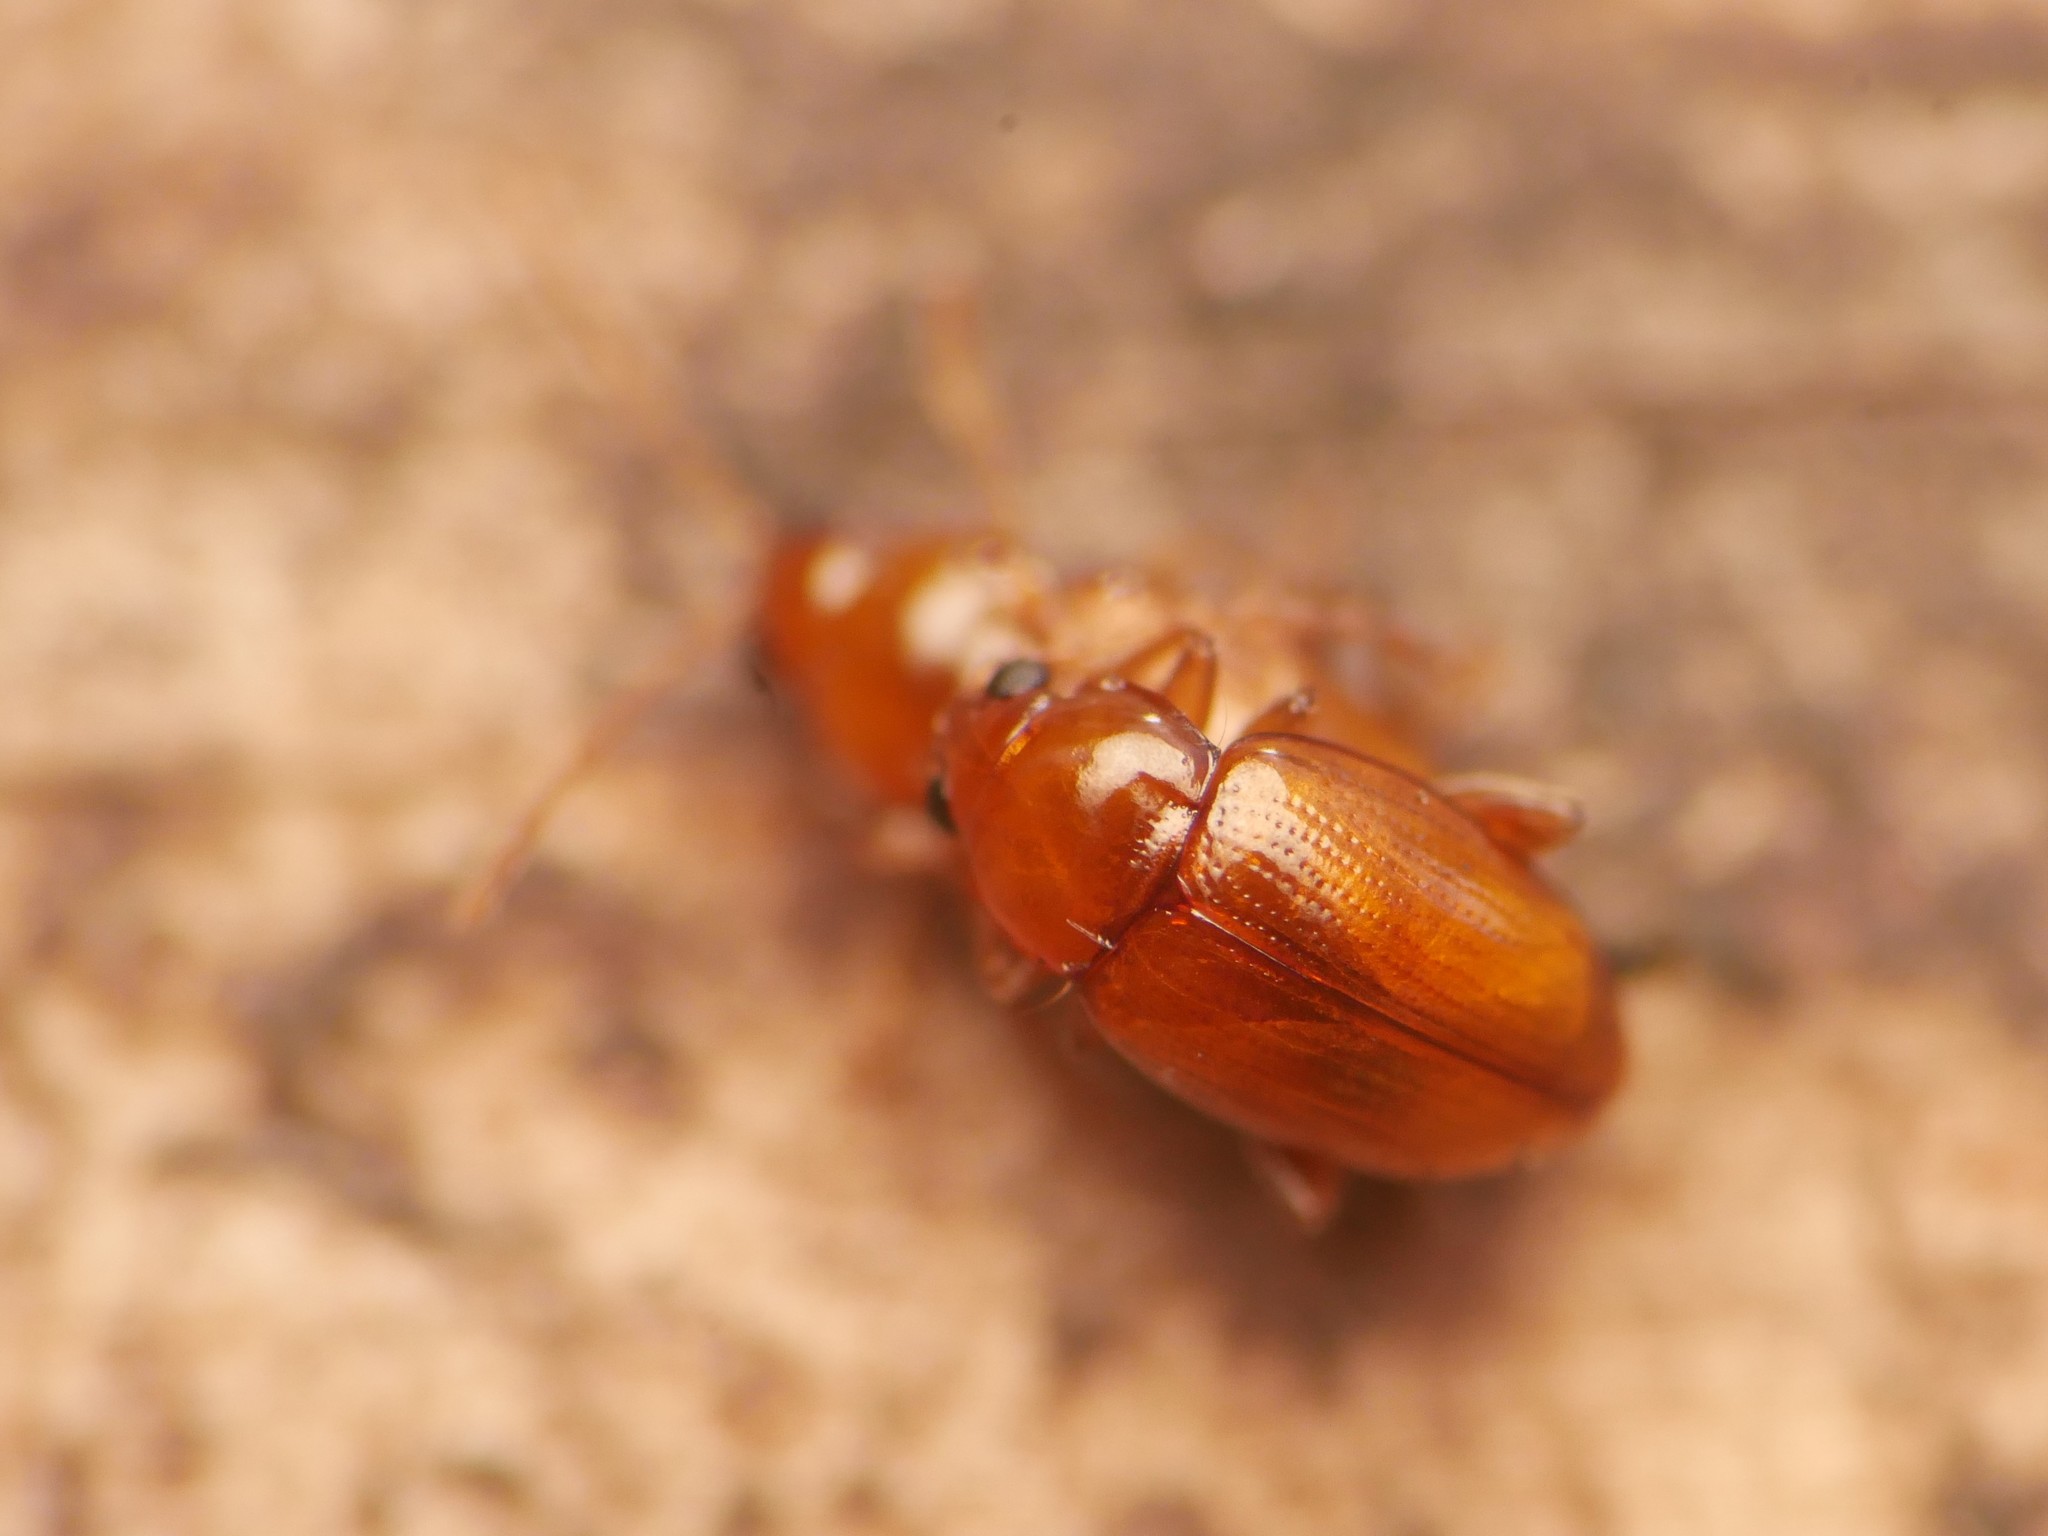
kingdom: Animalia
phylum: Arthropoda
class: Insecta
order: Coleoptera
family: Chrysomelidae
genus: Neocrepidodera
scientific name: Neocrepidodera ferruginea
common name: Wheat flea beetle
